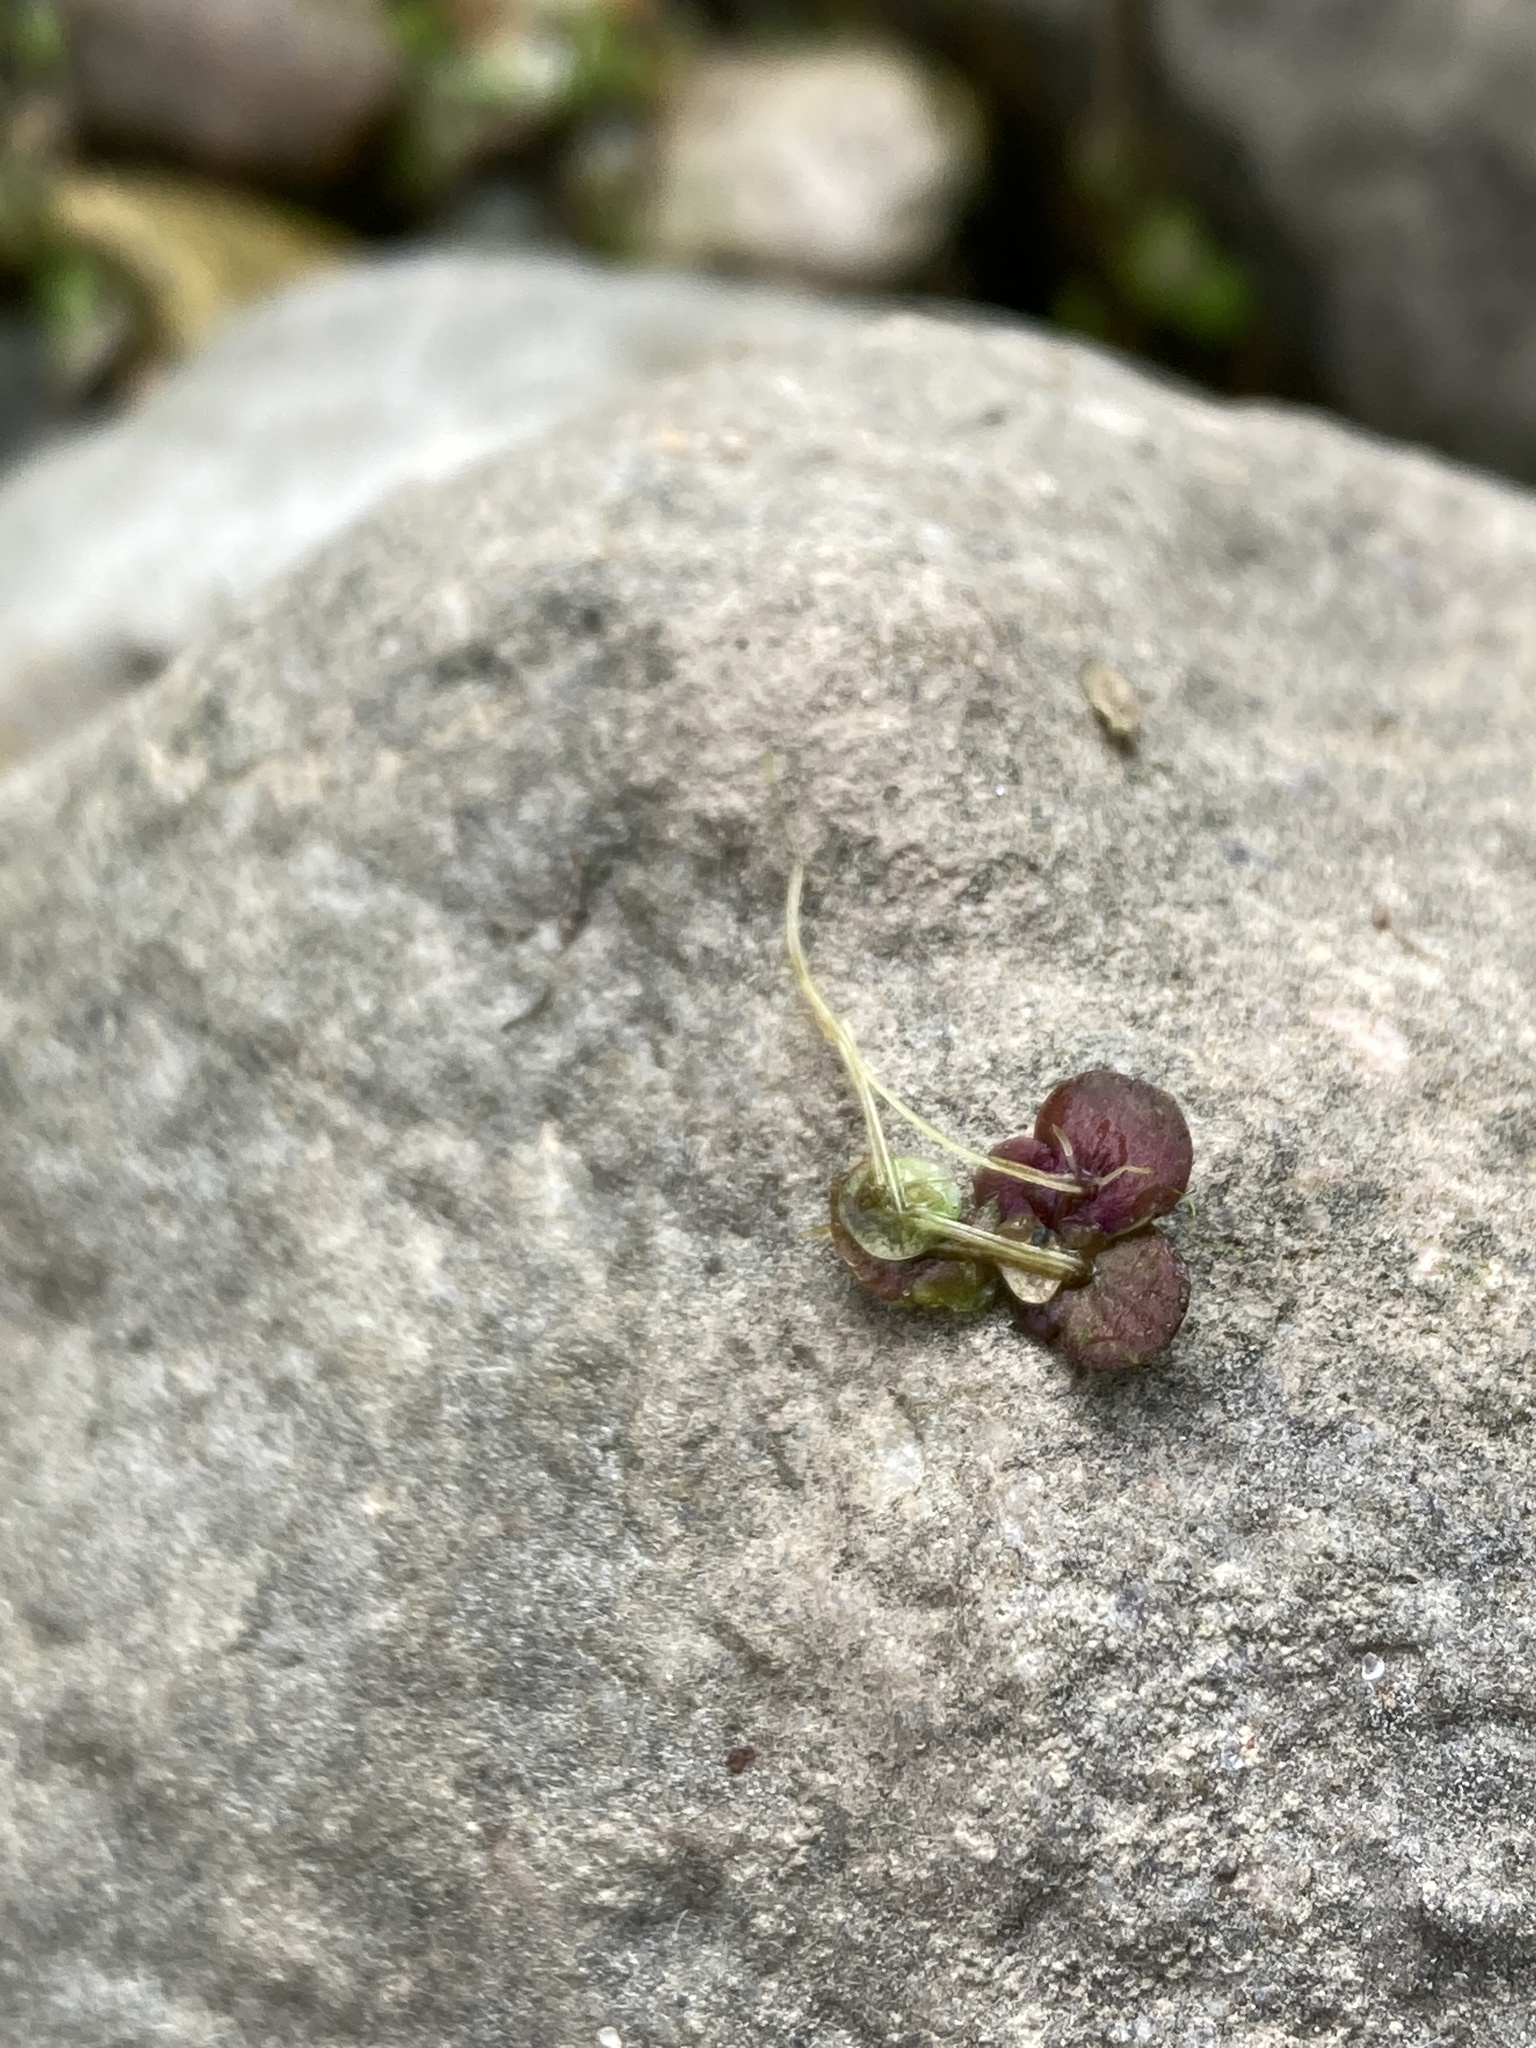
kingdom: Plantae
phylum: Tracheophyta
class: Liliopsida
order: Alismatales
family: Araceae
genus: Spirodela
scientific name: Spirodela polyrhiza
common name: Great duckweed
